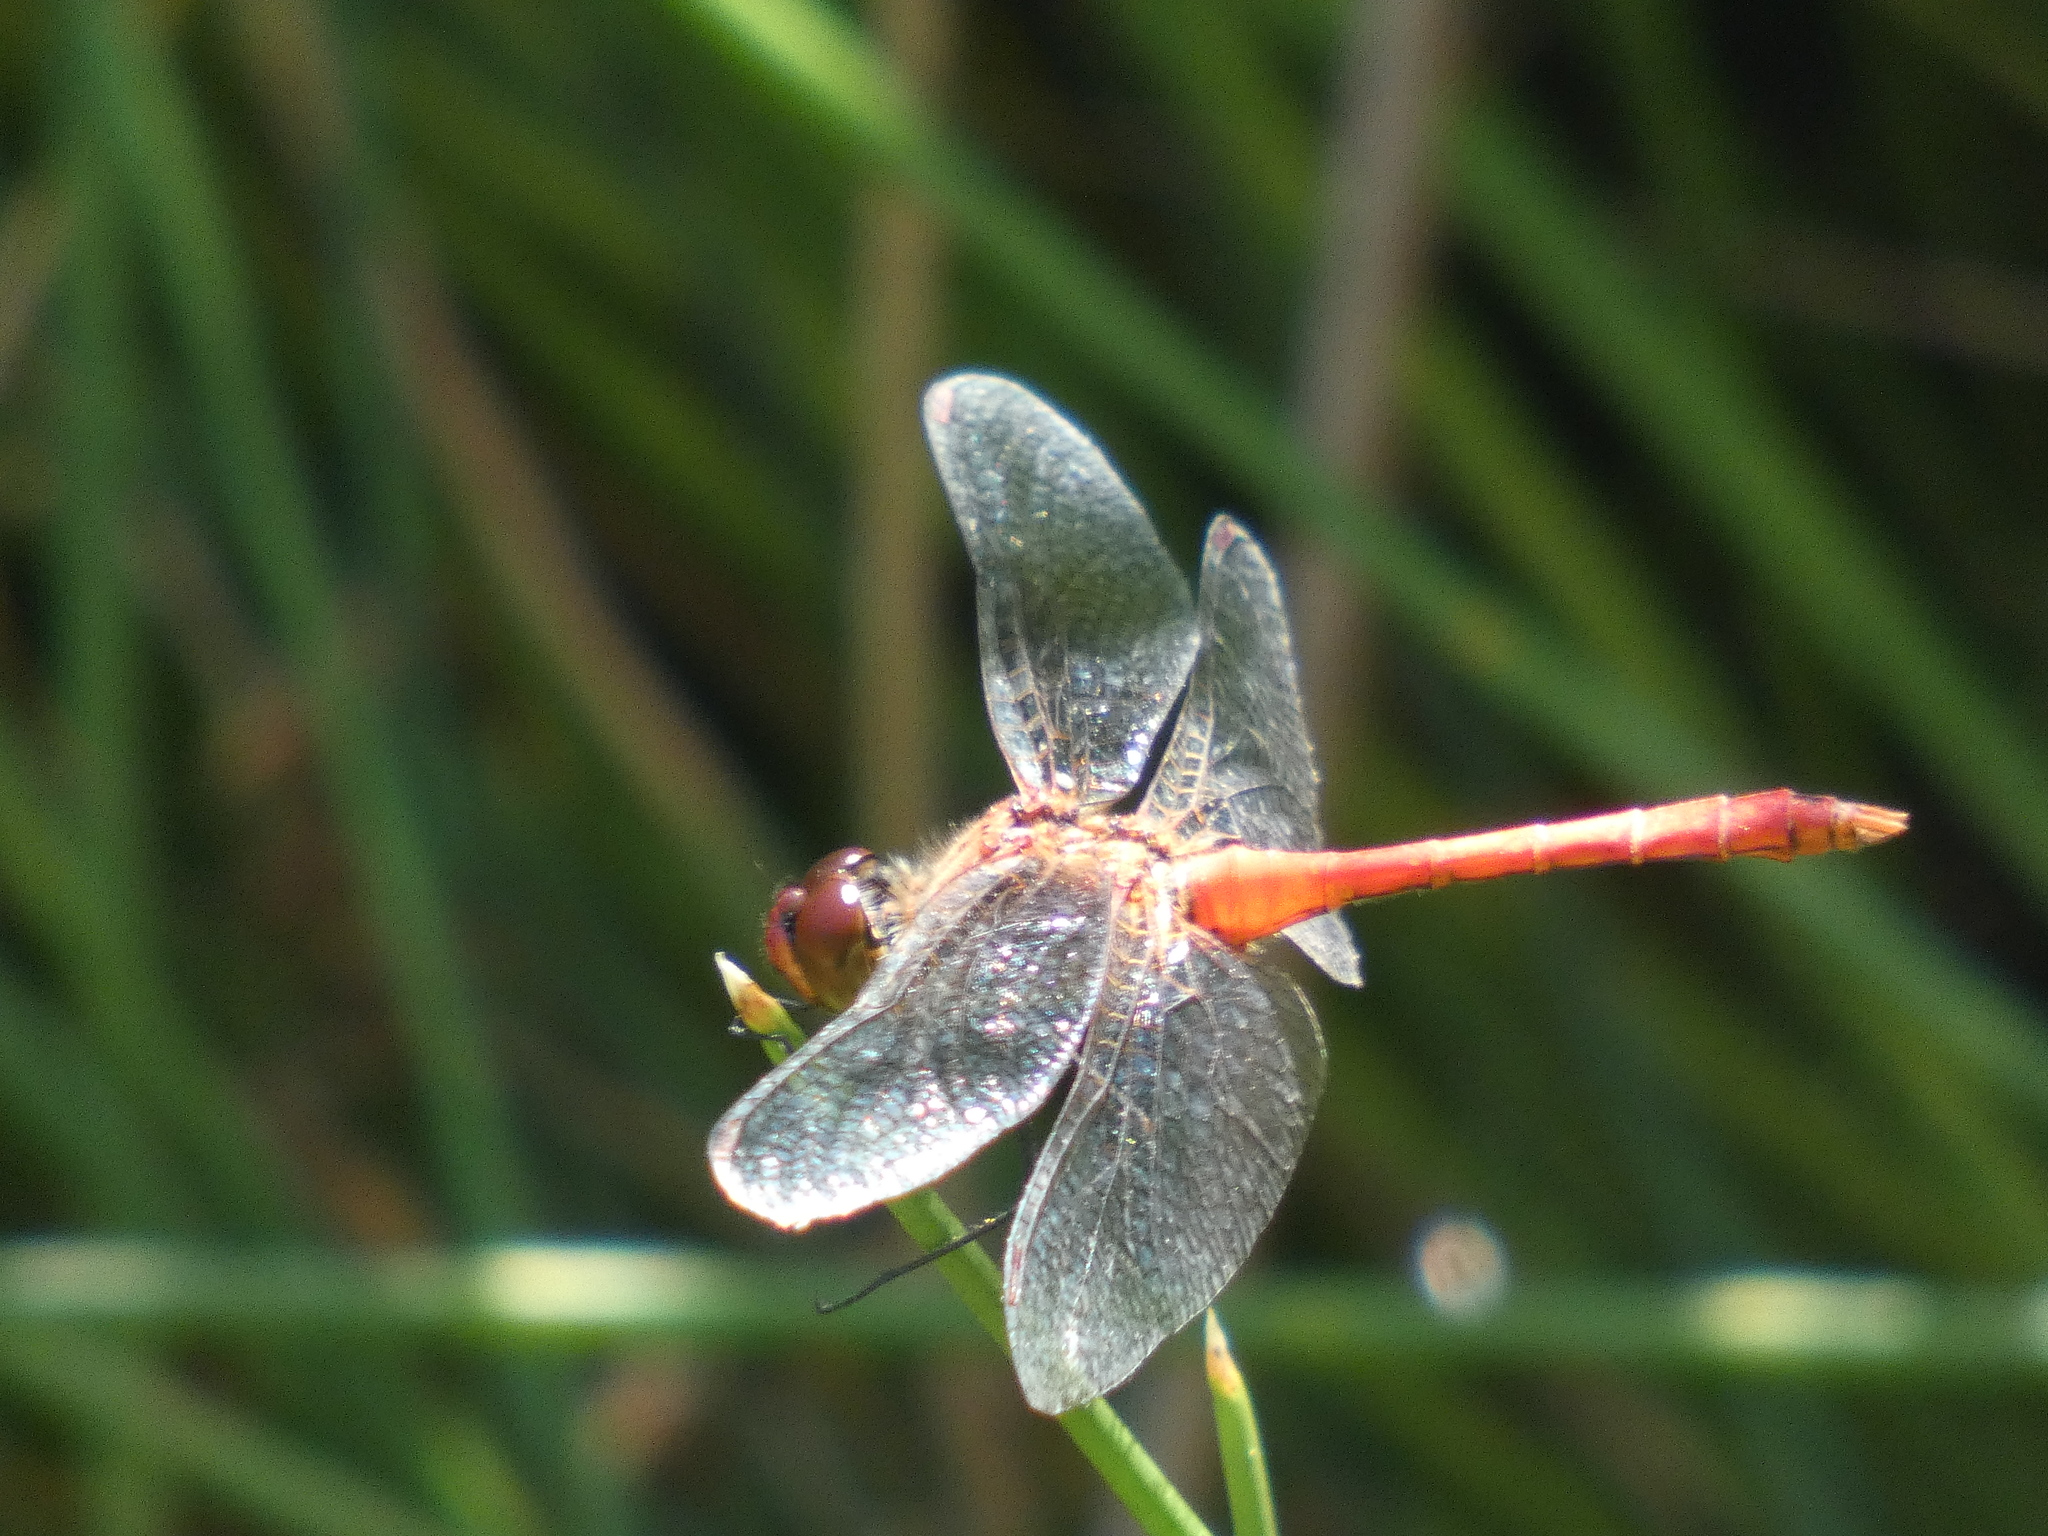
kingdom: Animalia
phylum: Arthropoda
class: Insecta
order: Odonata
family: Libellulidae
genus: Sympetrum
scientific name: Sympetrum sanguineum
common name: Ruddy darter
